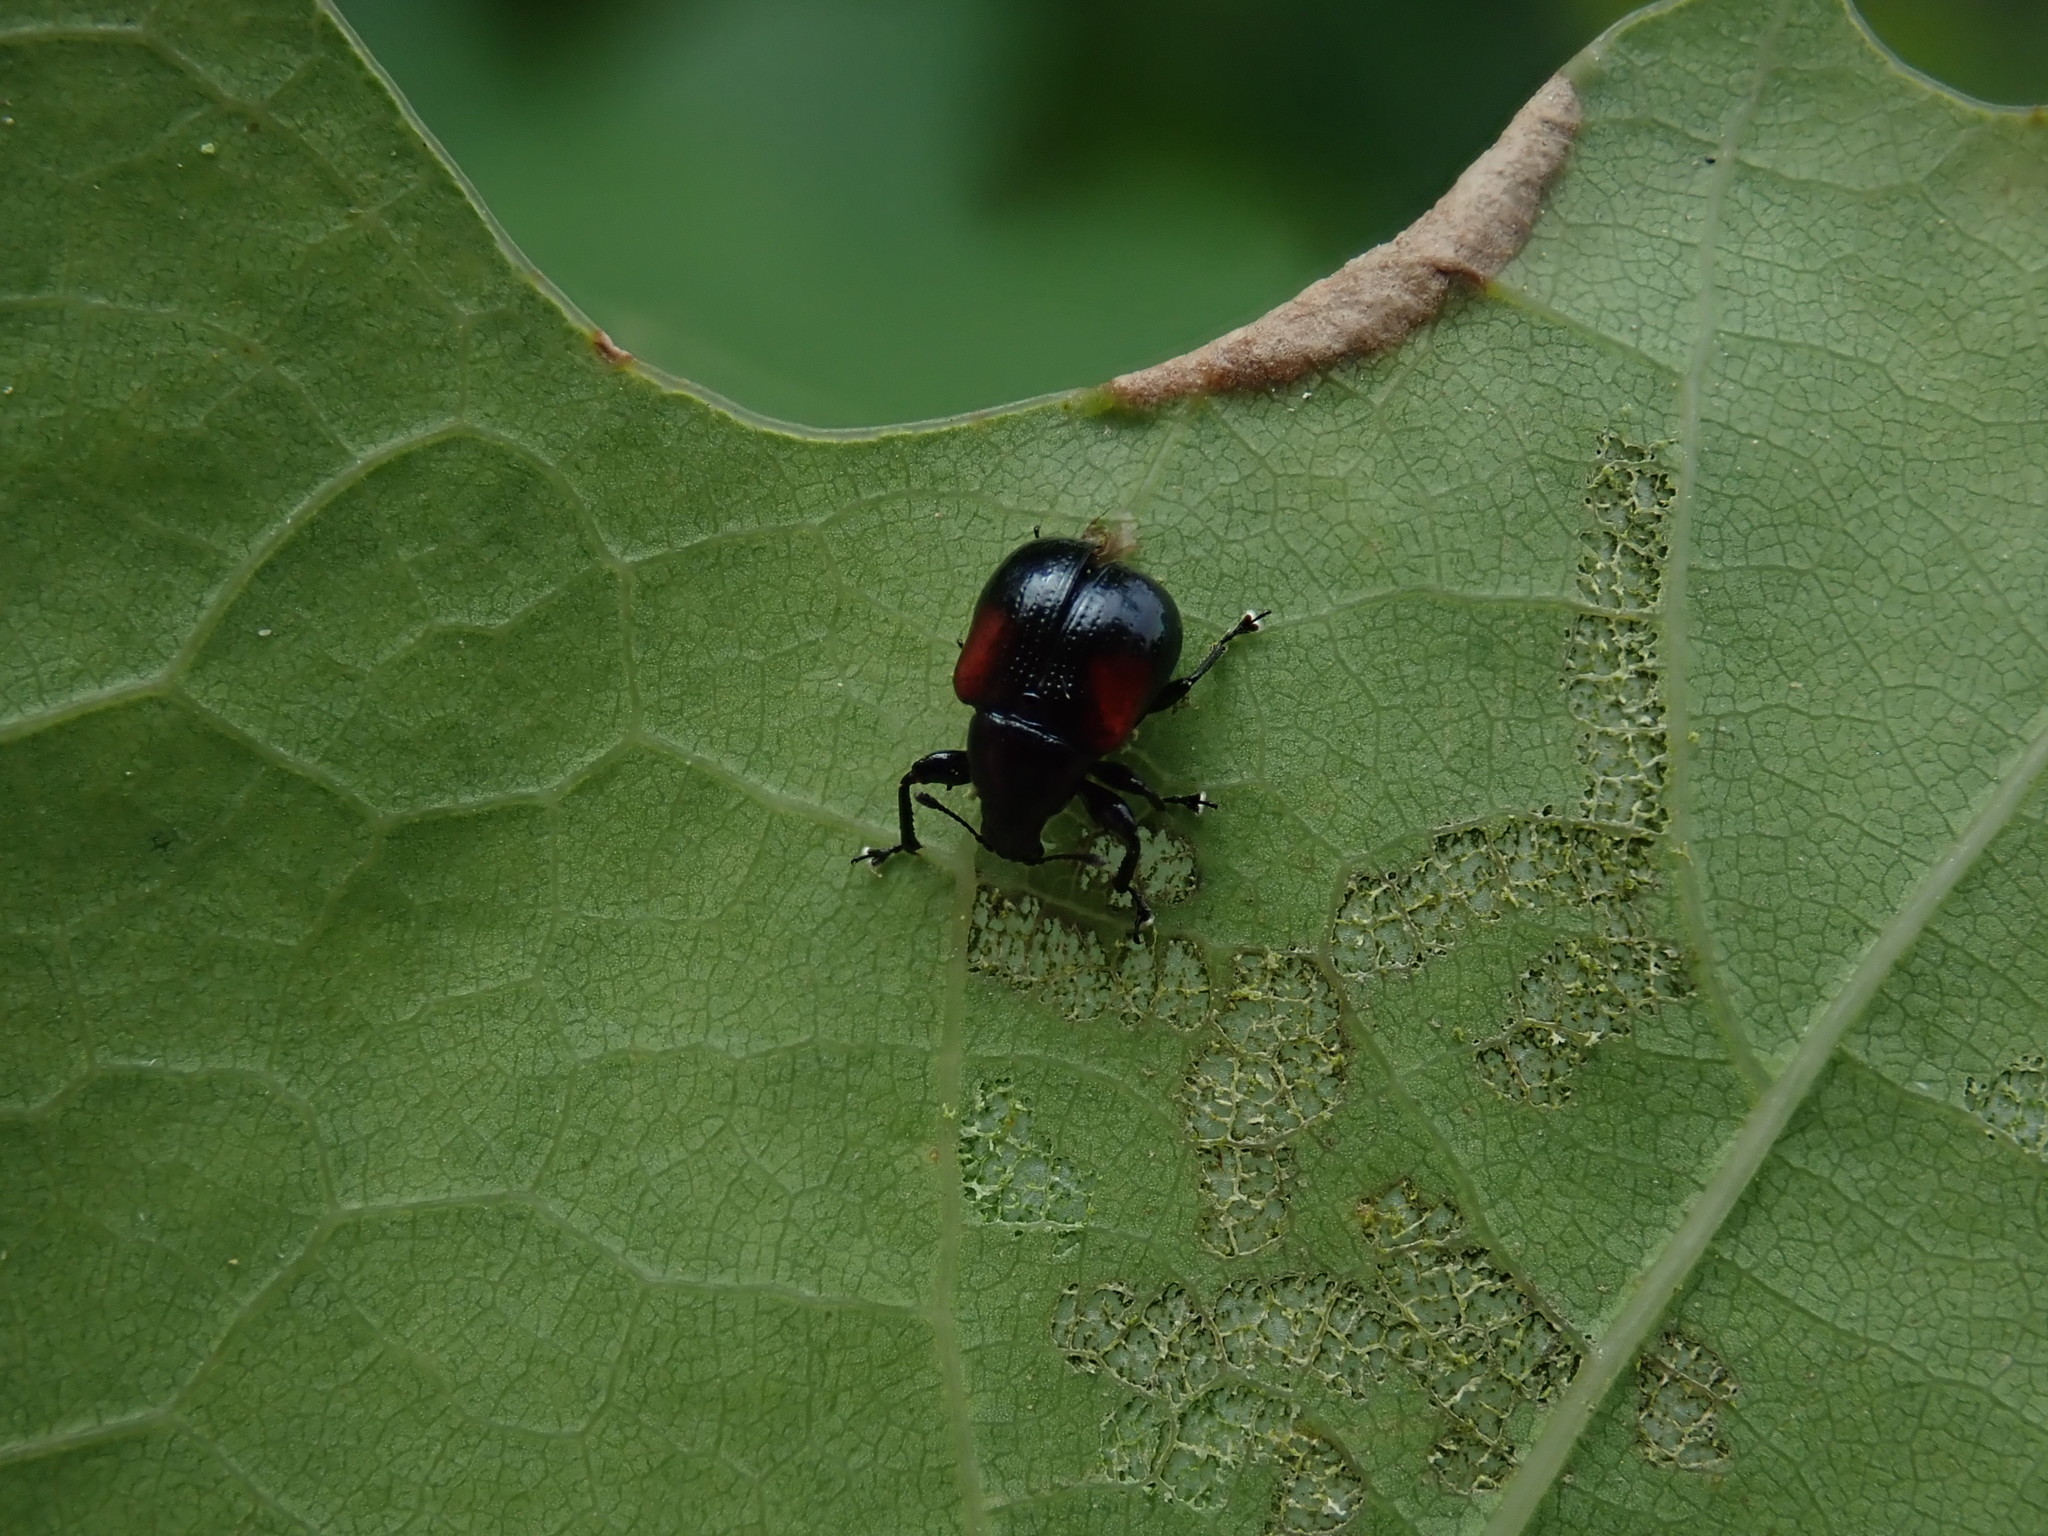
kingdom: Animalia
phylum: Arthropoda
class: Insecta
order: Coleoptera
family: Attelabidae
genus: Attelabus
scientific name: Attelabus bipustulatus
